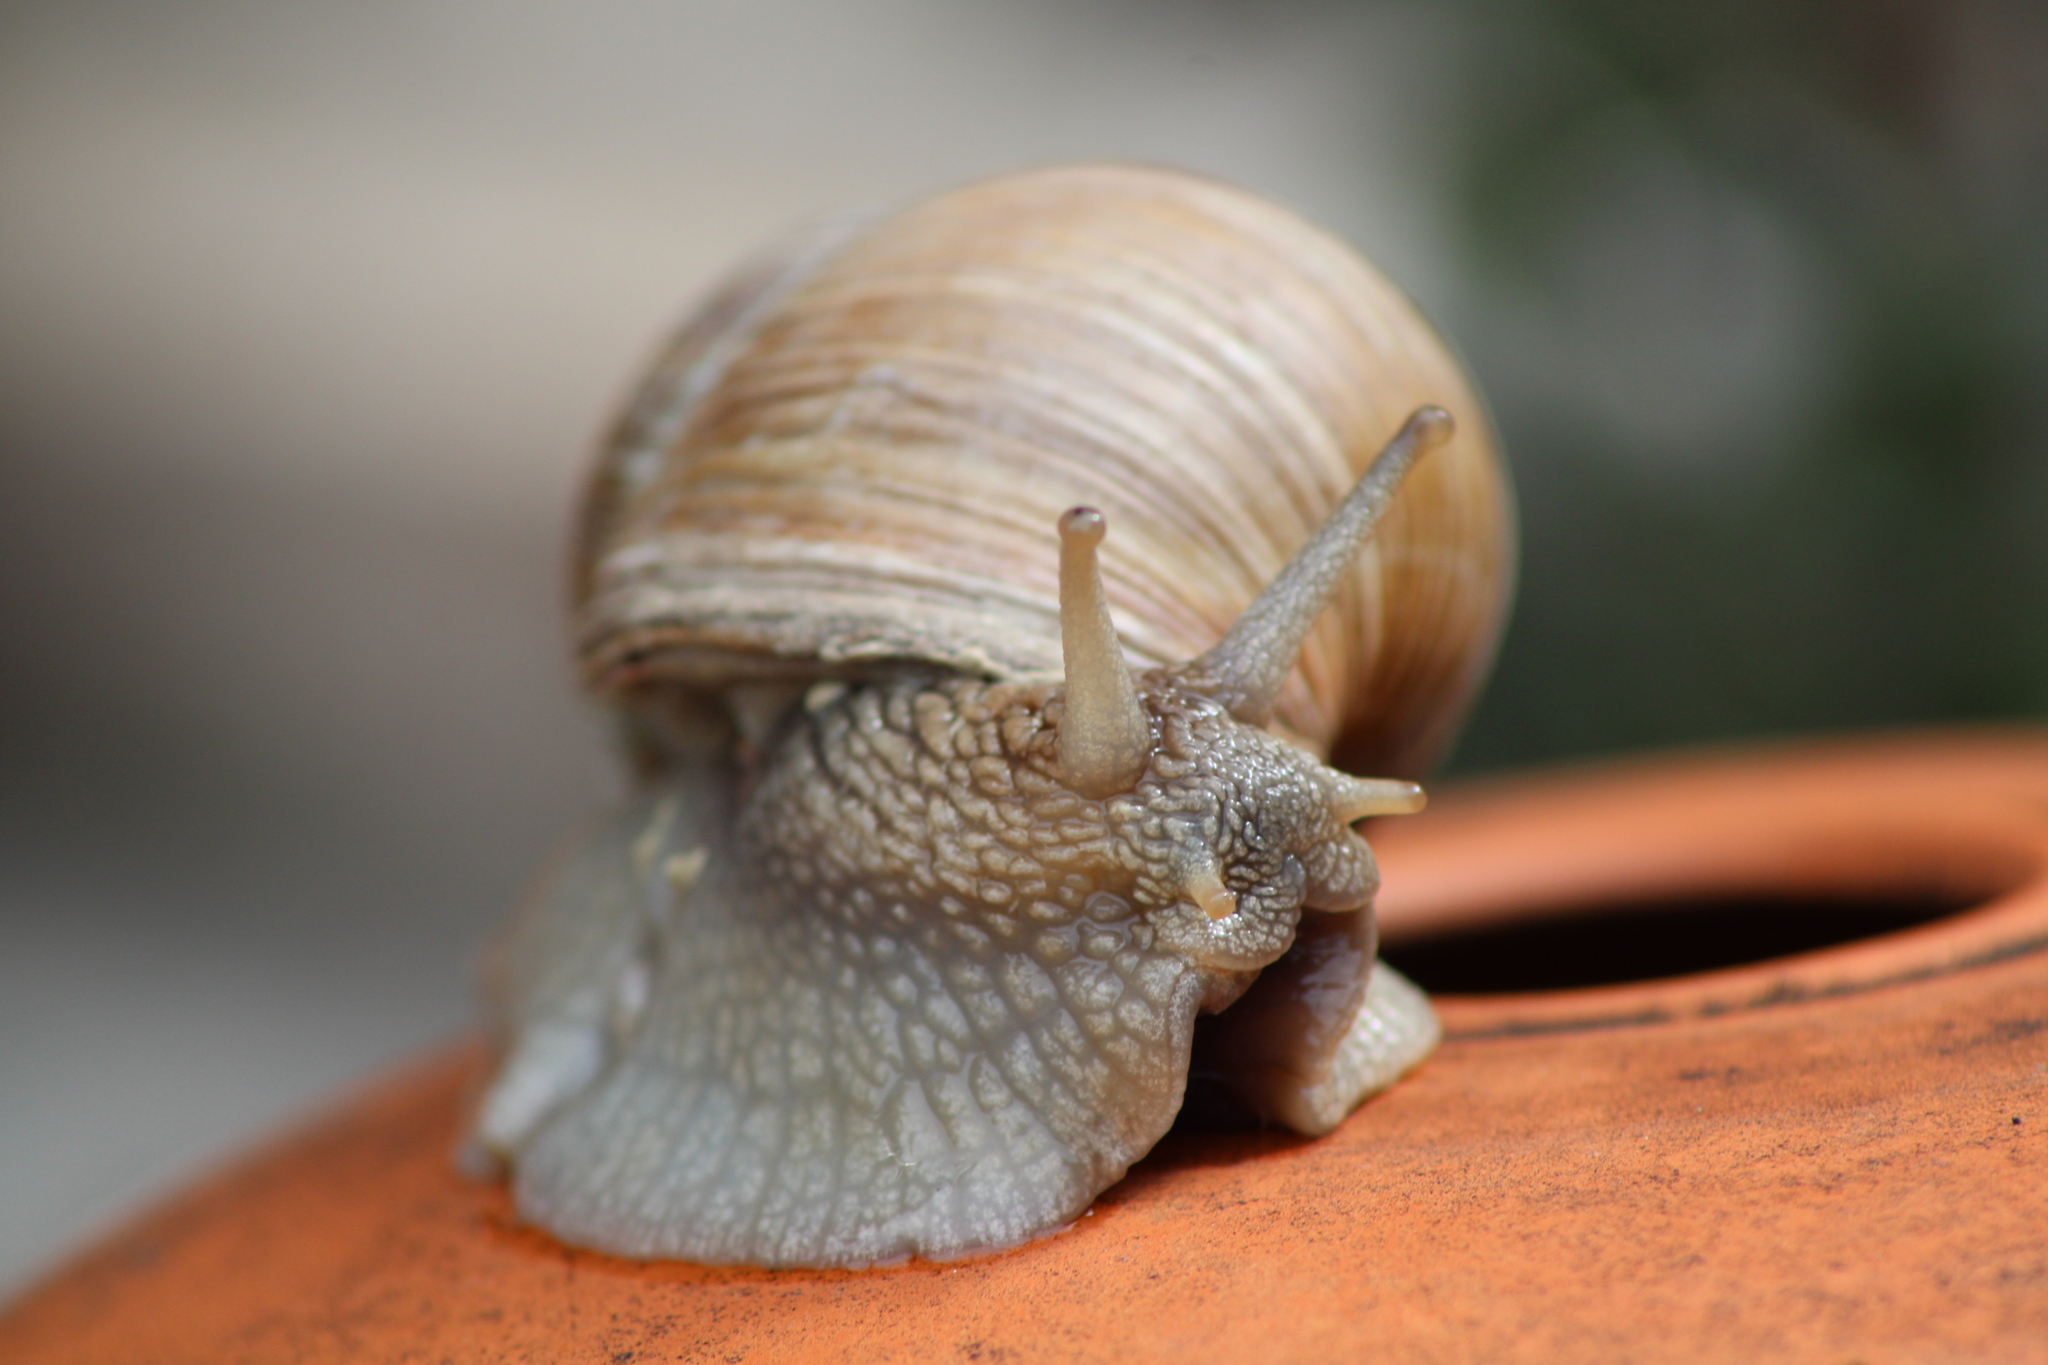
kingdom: Animalia
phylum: Mollusca
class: Gastropoda
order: Stylommatophora
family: Helicidae
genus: Helix
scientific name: Helix pomatia
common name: Roman snail
